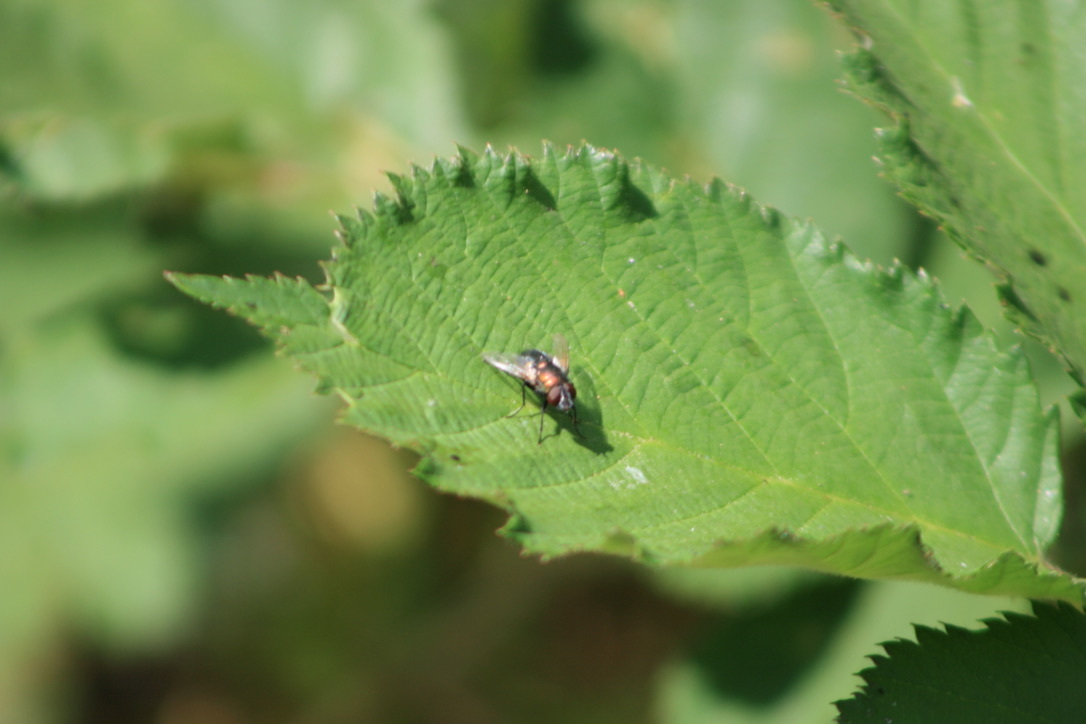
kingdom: Animalia
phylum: Arthropoda
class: Insecta
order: Diptera
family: Calliphoridae
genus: Lucilia
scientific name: Lucilia sericata
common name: Blow fly
